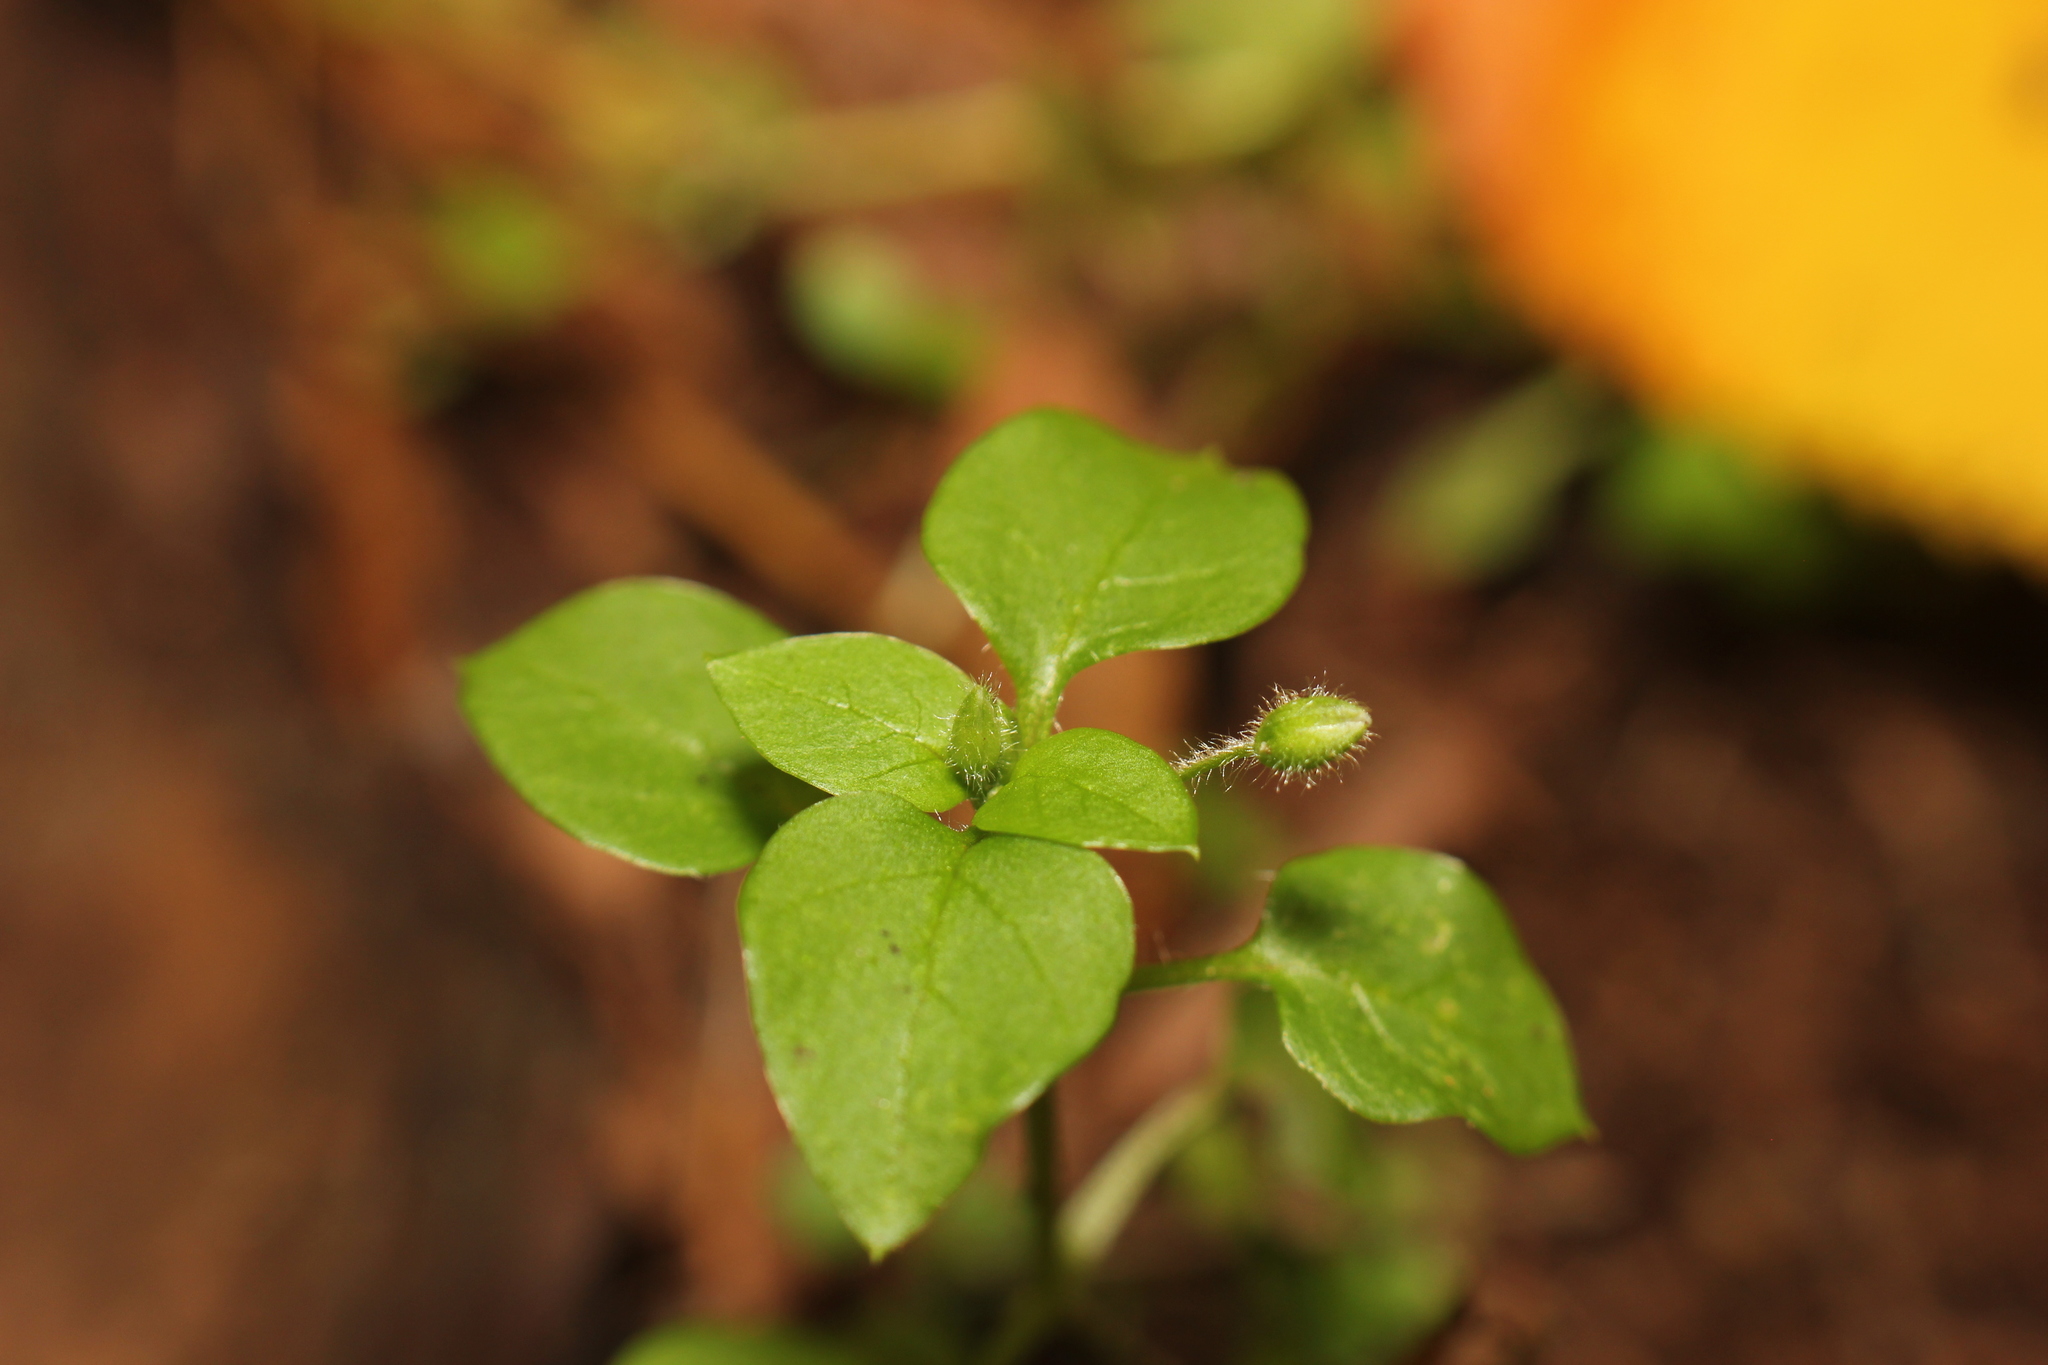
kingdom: Plantae
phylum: Tracheophyta
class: Magnoliopsida
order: Caryophyllales
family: Caryophyllaceae
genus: Stellaria
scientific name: Stellaria media
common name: Common chickweed
